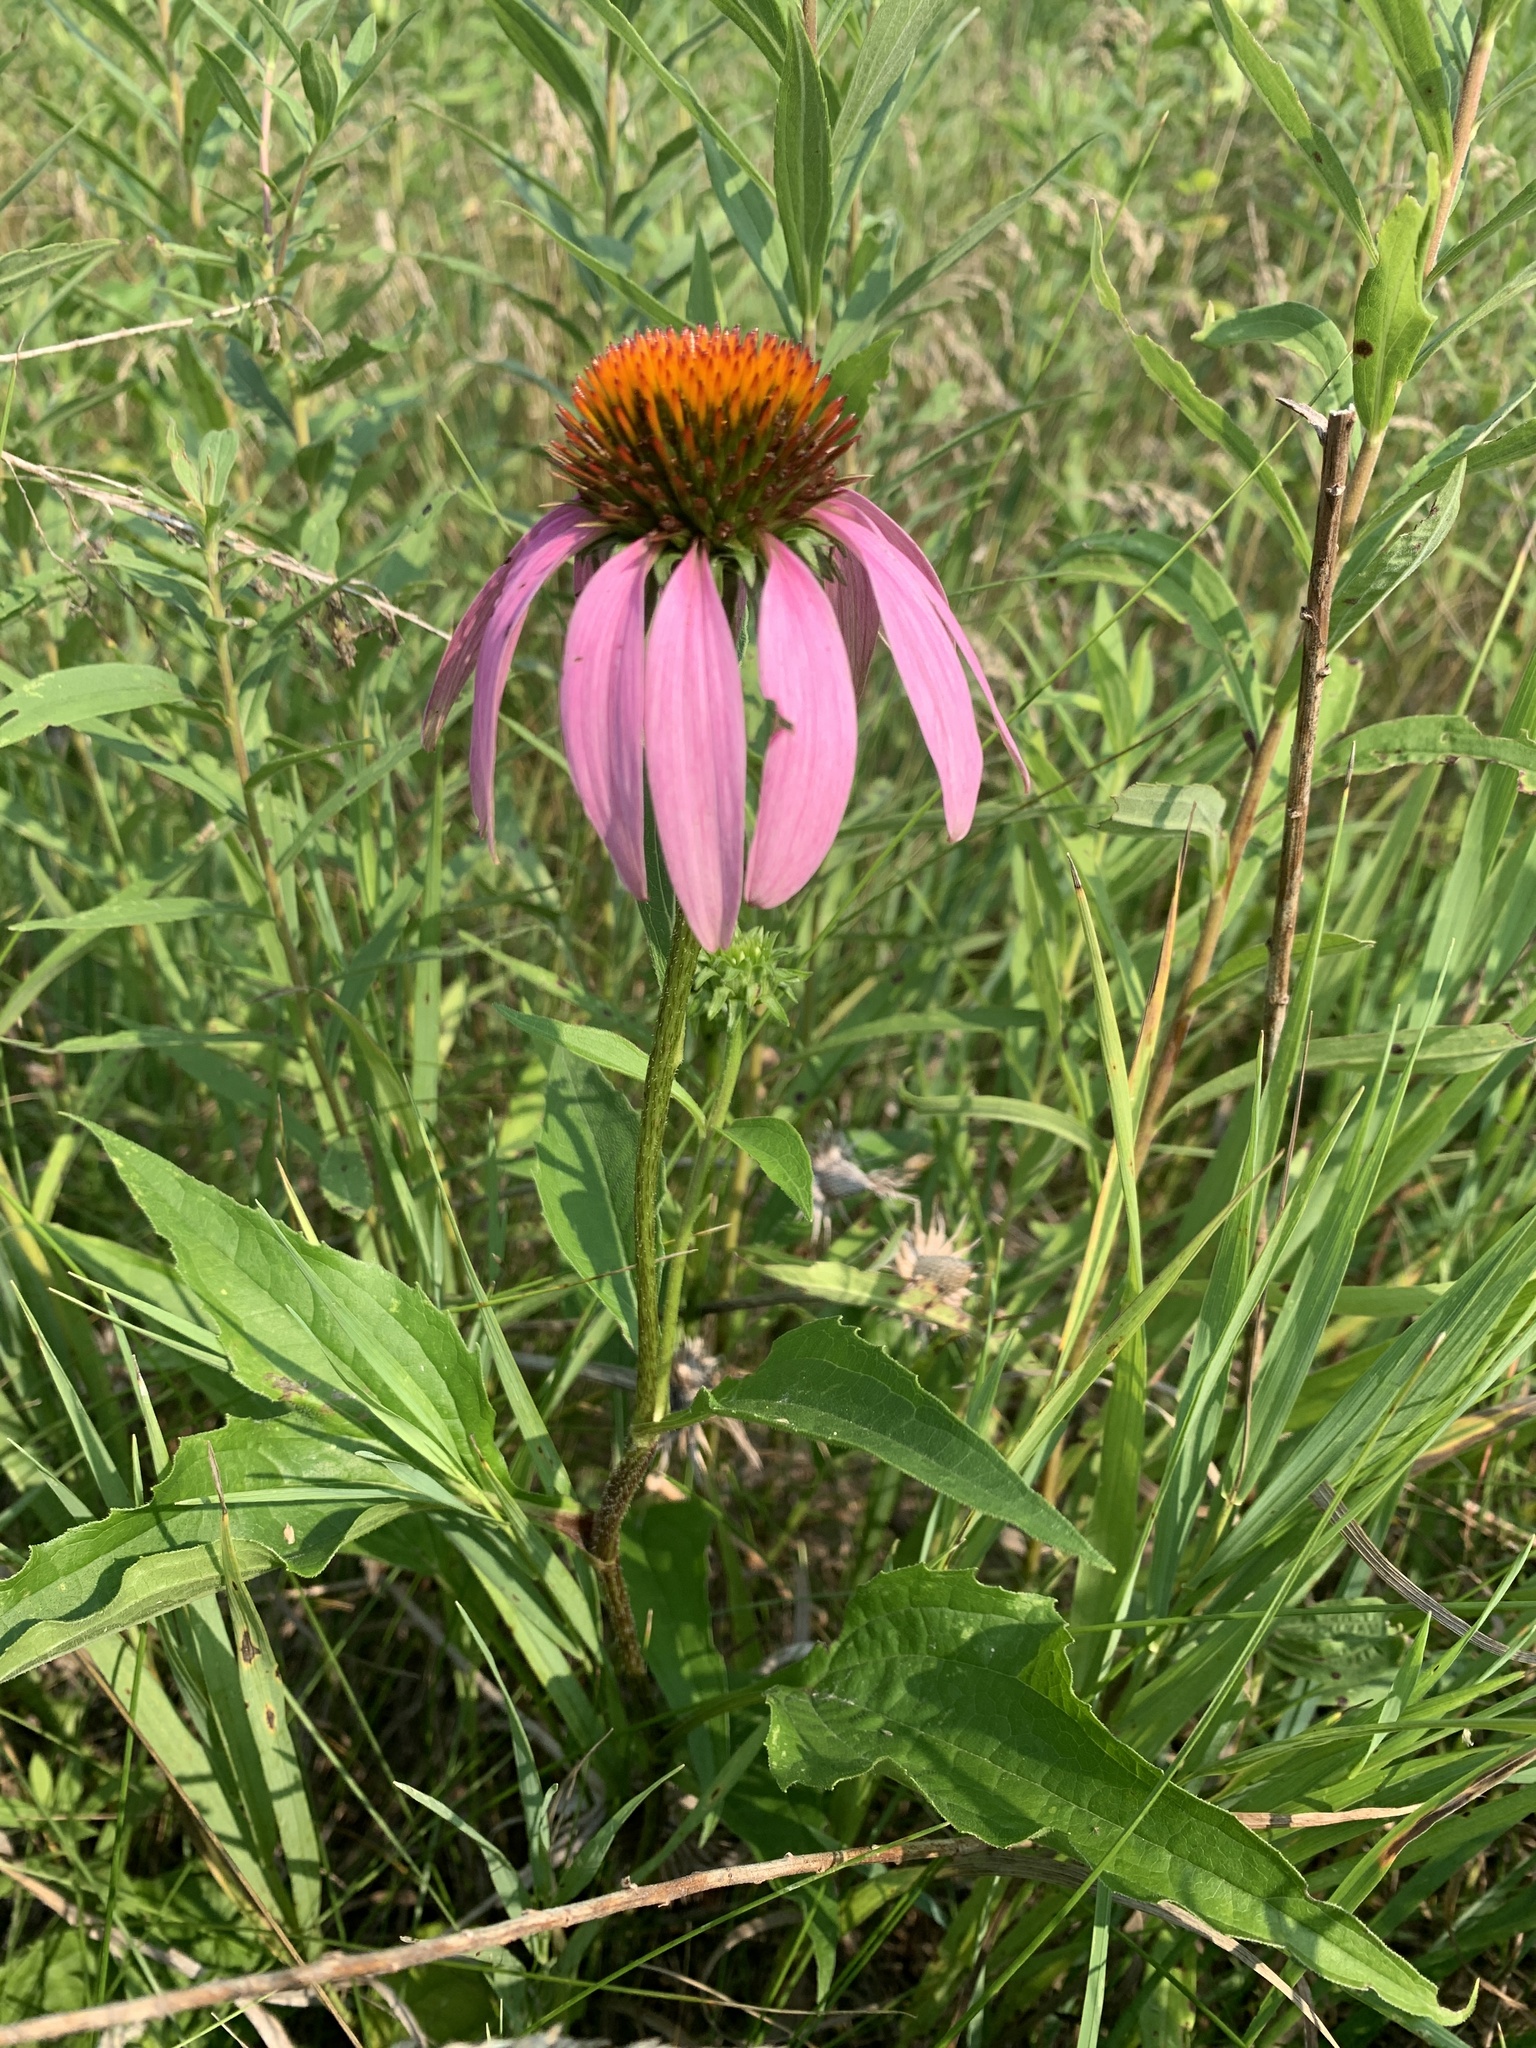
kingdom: Plantae
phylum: Tracheophyta
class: Magnoliopsida
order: Asterales
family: Asteraceae
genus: Echinacea
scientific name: Echinacea purpurea
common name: Broad-leaved purple coneflower
